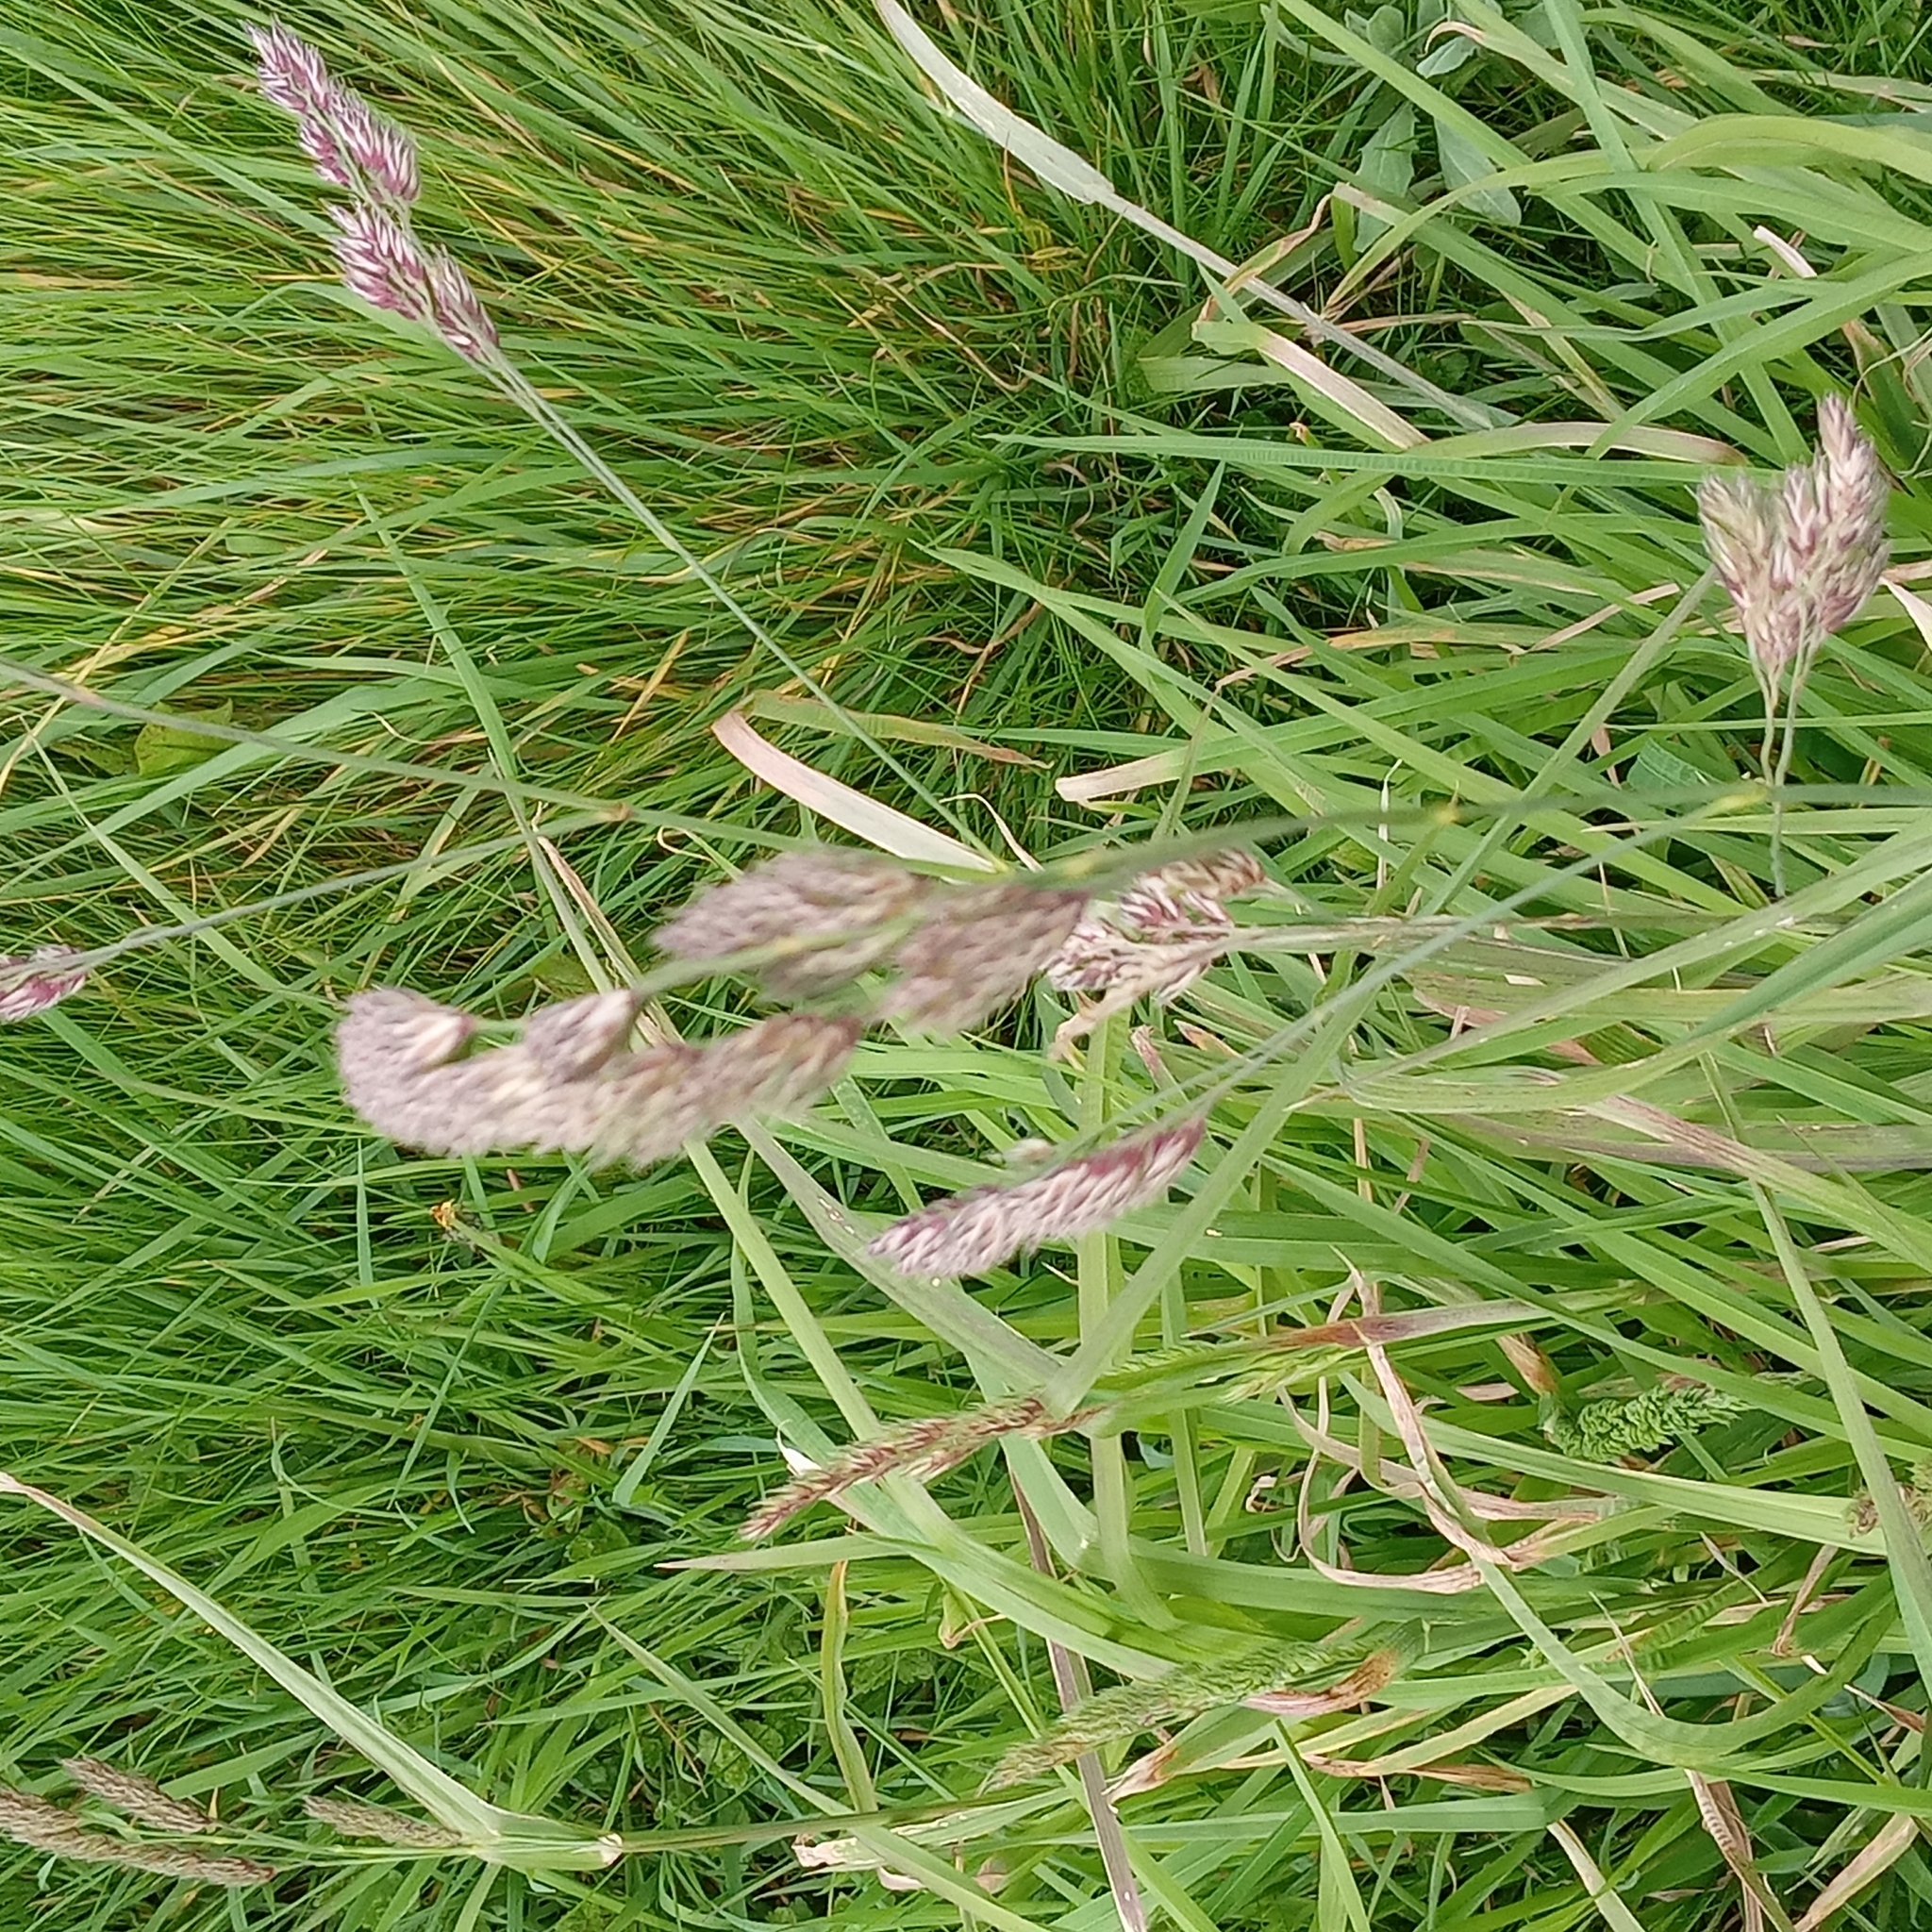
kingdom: Plantae
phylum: Tracheophyta
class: Liliopsida
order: Poales
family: Poaceae
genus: Dactylis
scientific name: Dactylis glomerata
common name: Orchardgrass
